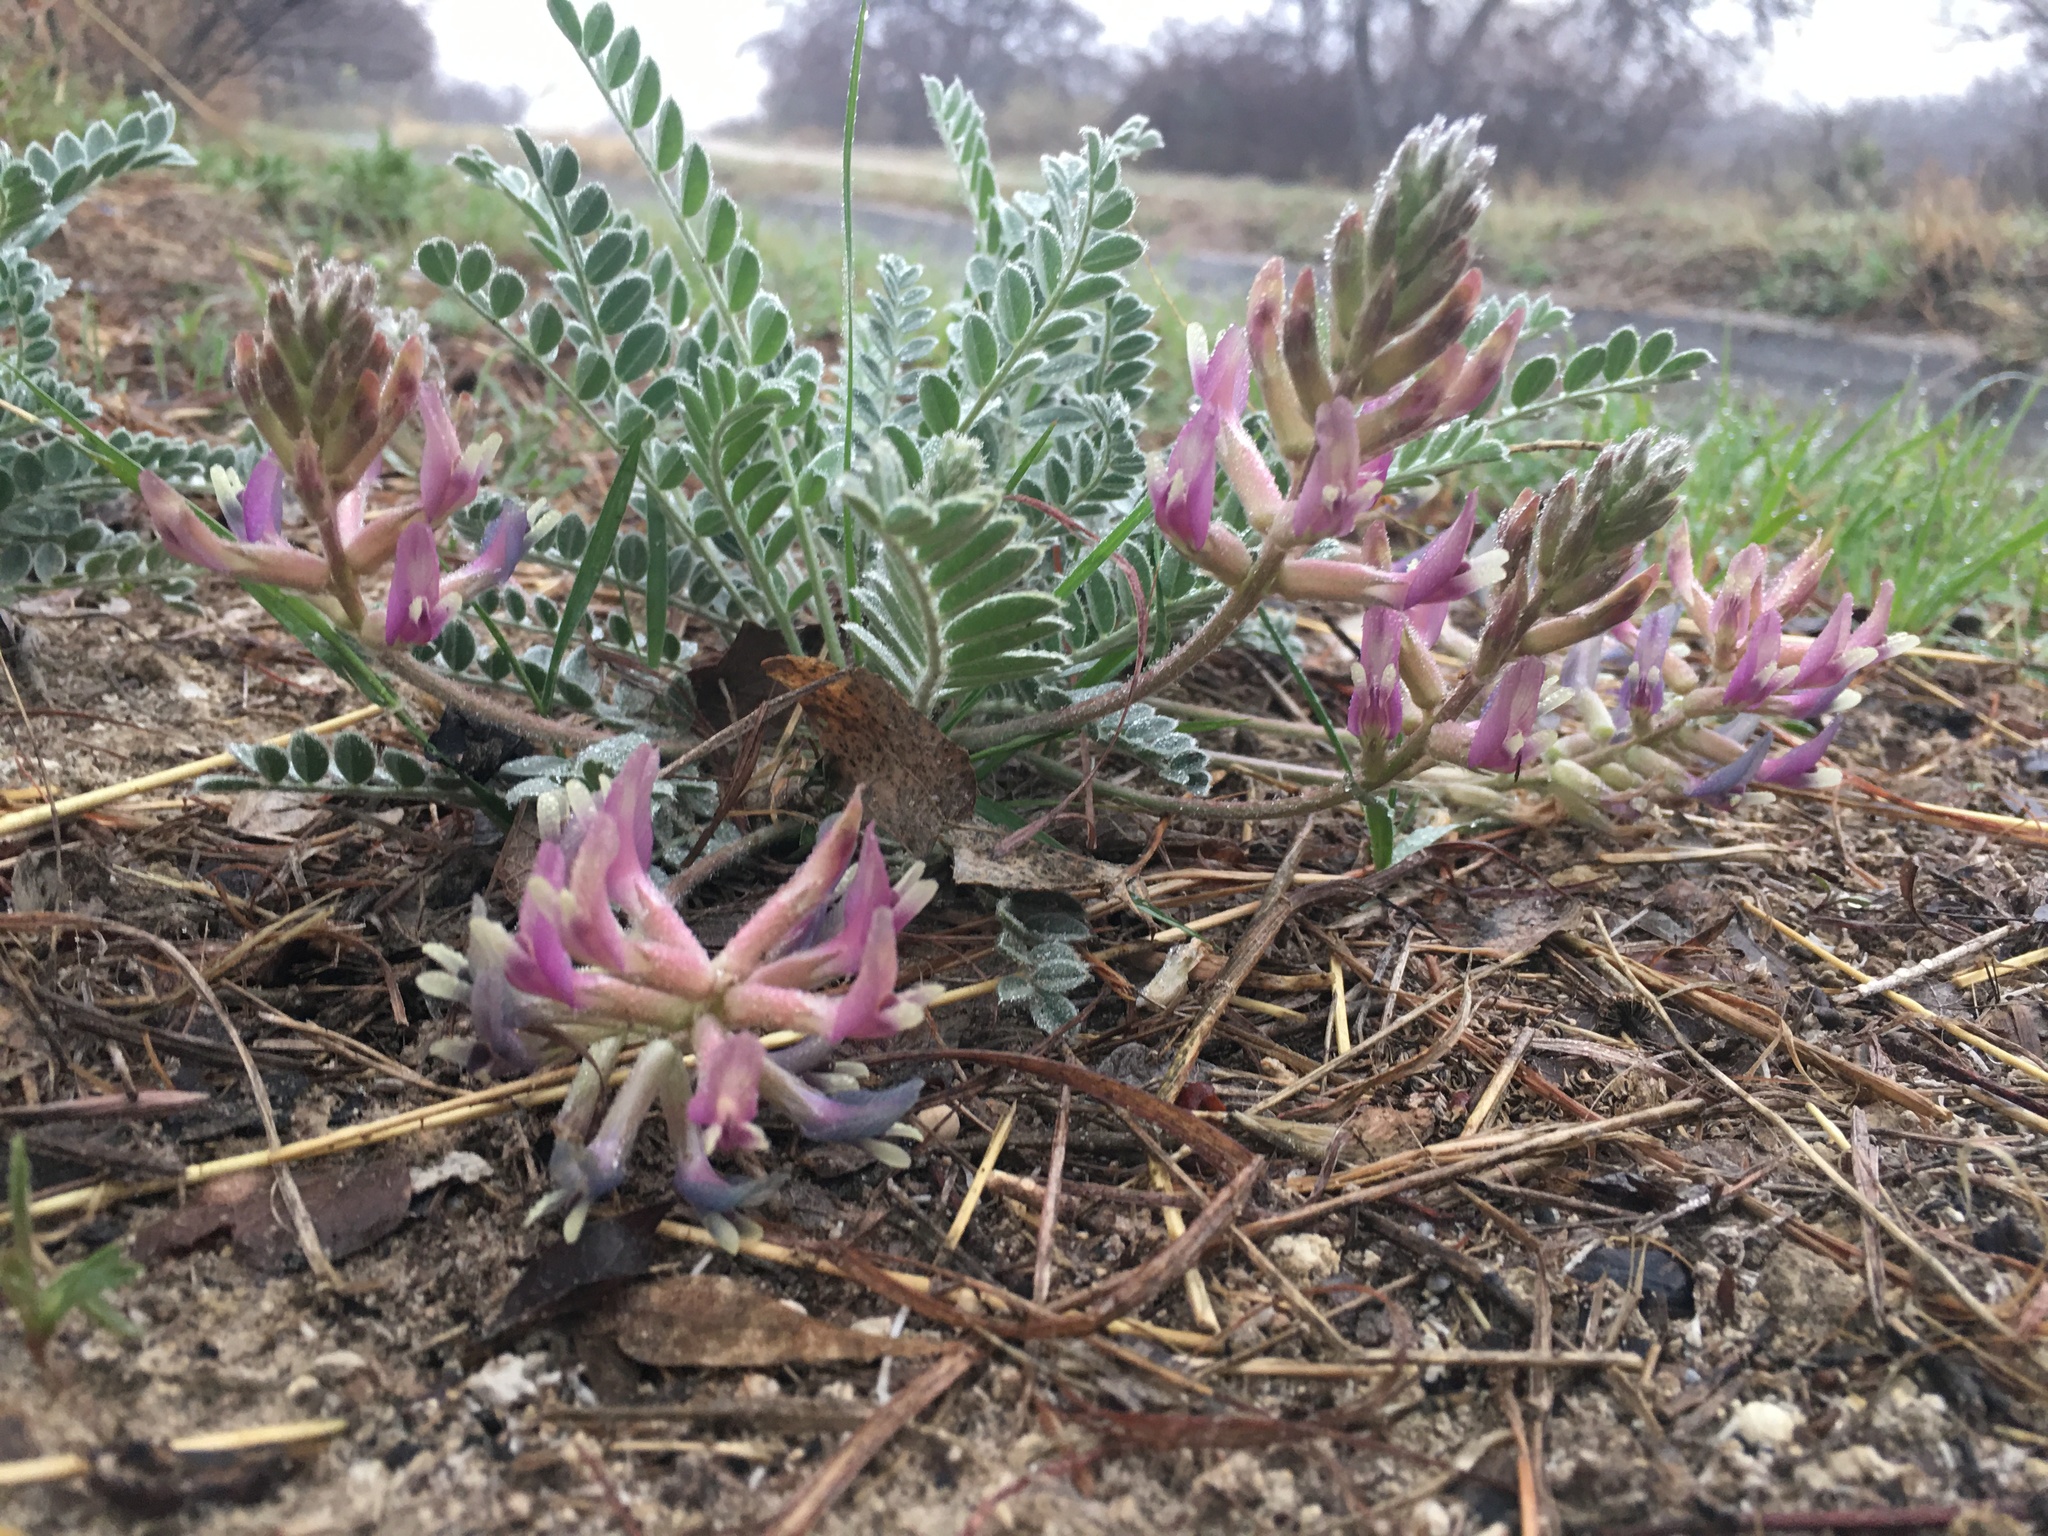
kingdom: Plantae
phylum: Tracheophyta
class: Magnoliopsida
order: Fabales
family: Fabaceae
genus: Astragalus
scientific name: Astragalus mollissimus
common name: Woolly locoweed
